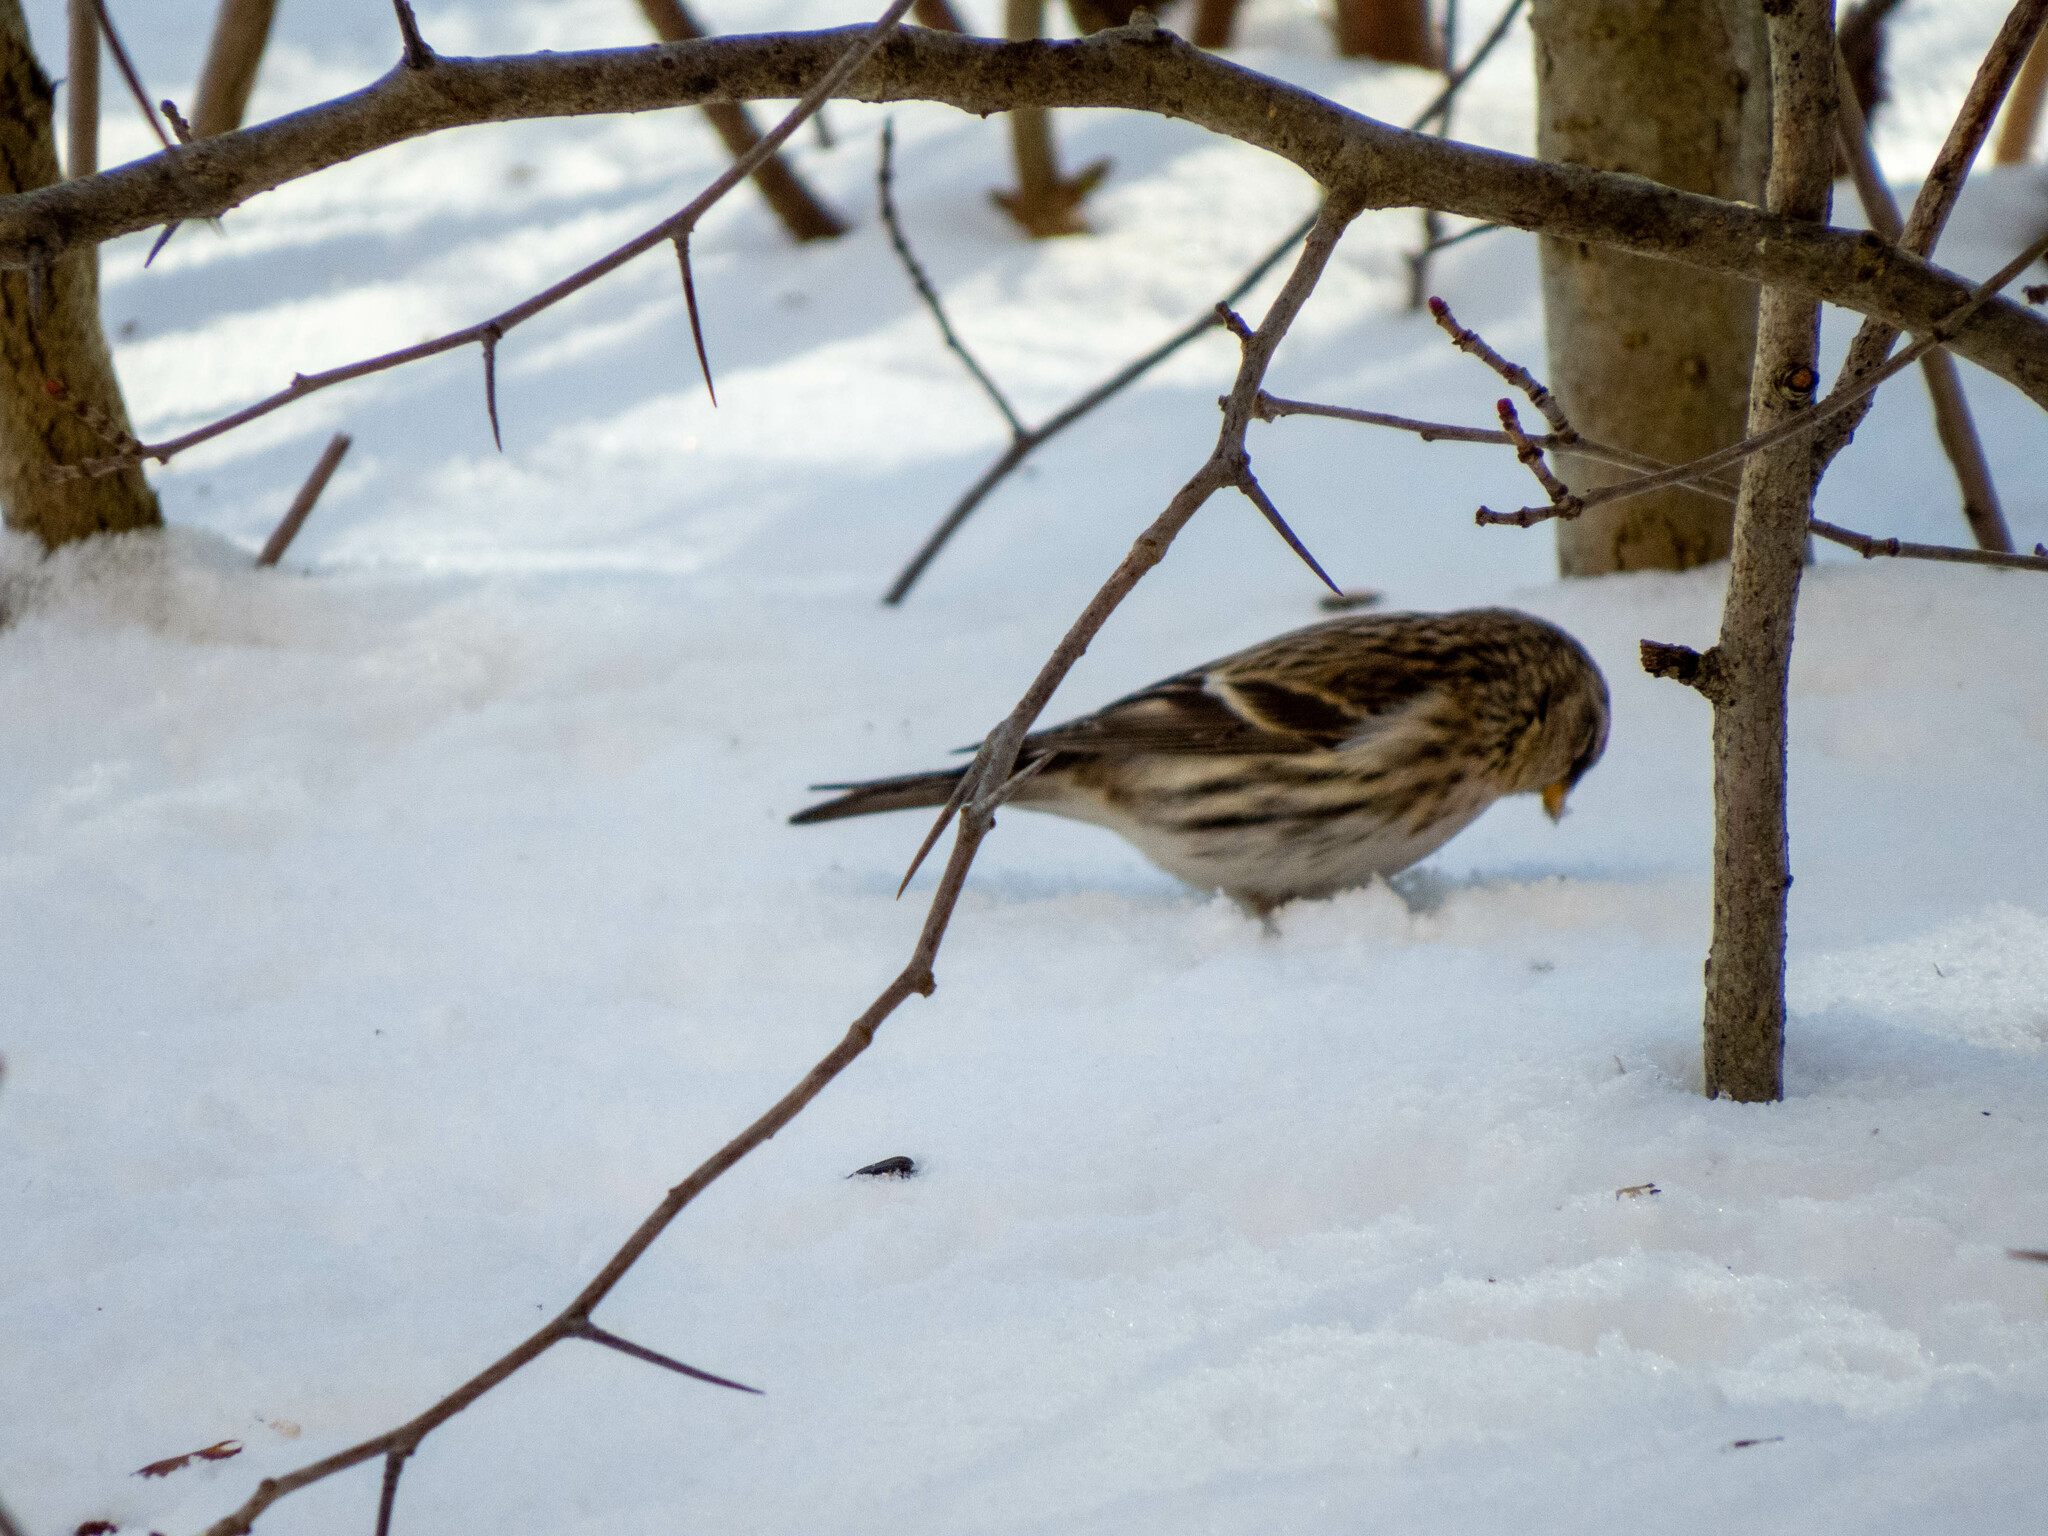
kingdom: Animalia
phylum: Chordata
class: Aves
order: Passeriformes
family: Fringillidae
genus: Acanthis
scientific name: Acanthis flammea
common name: Common redpoll
